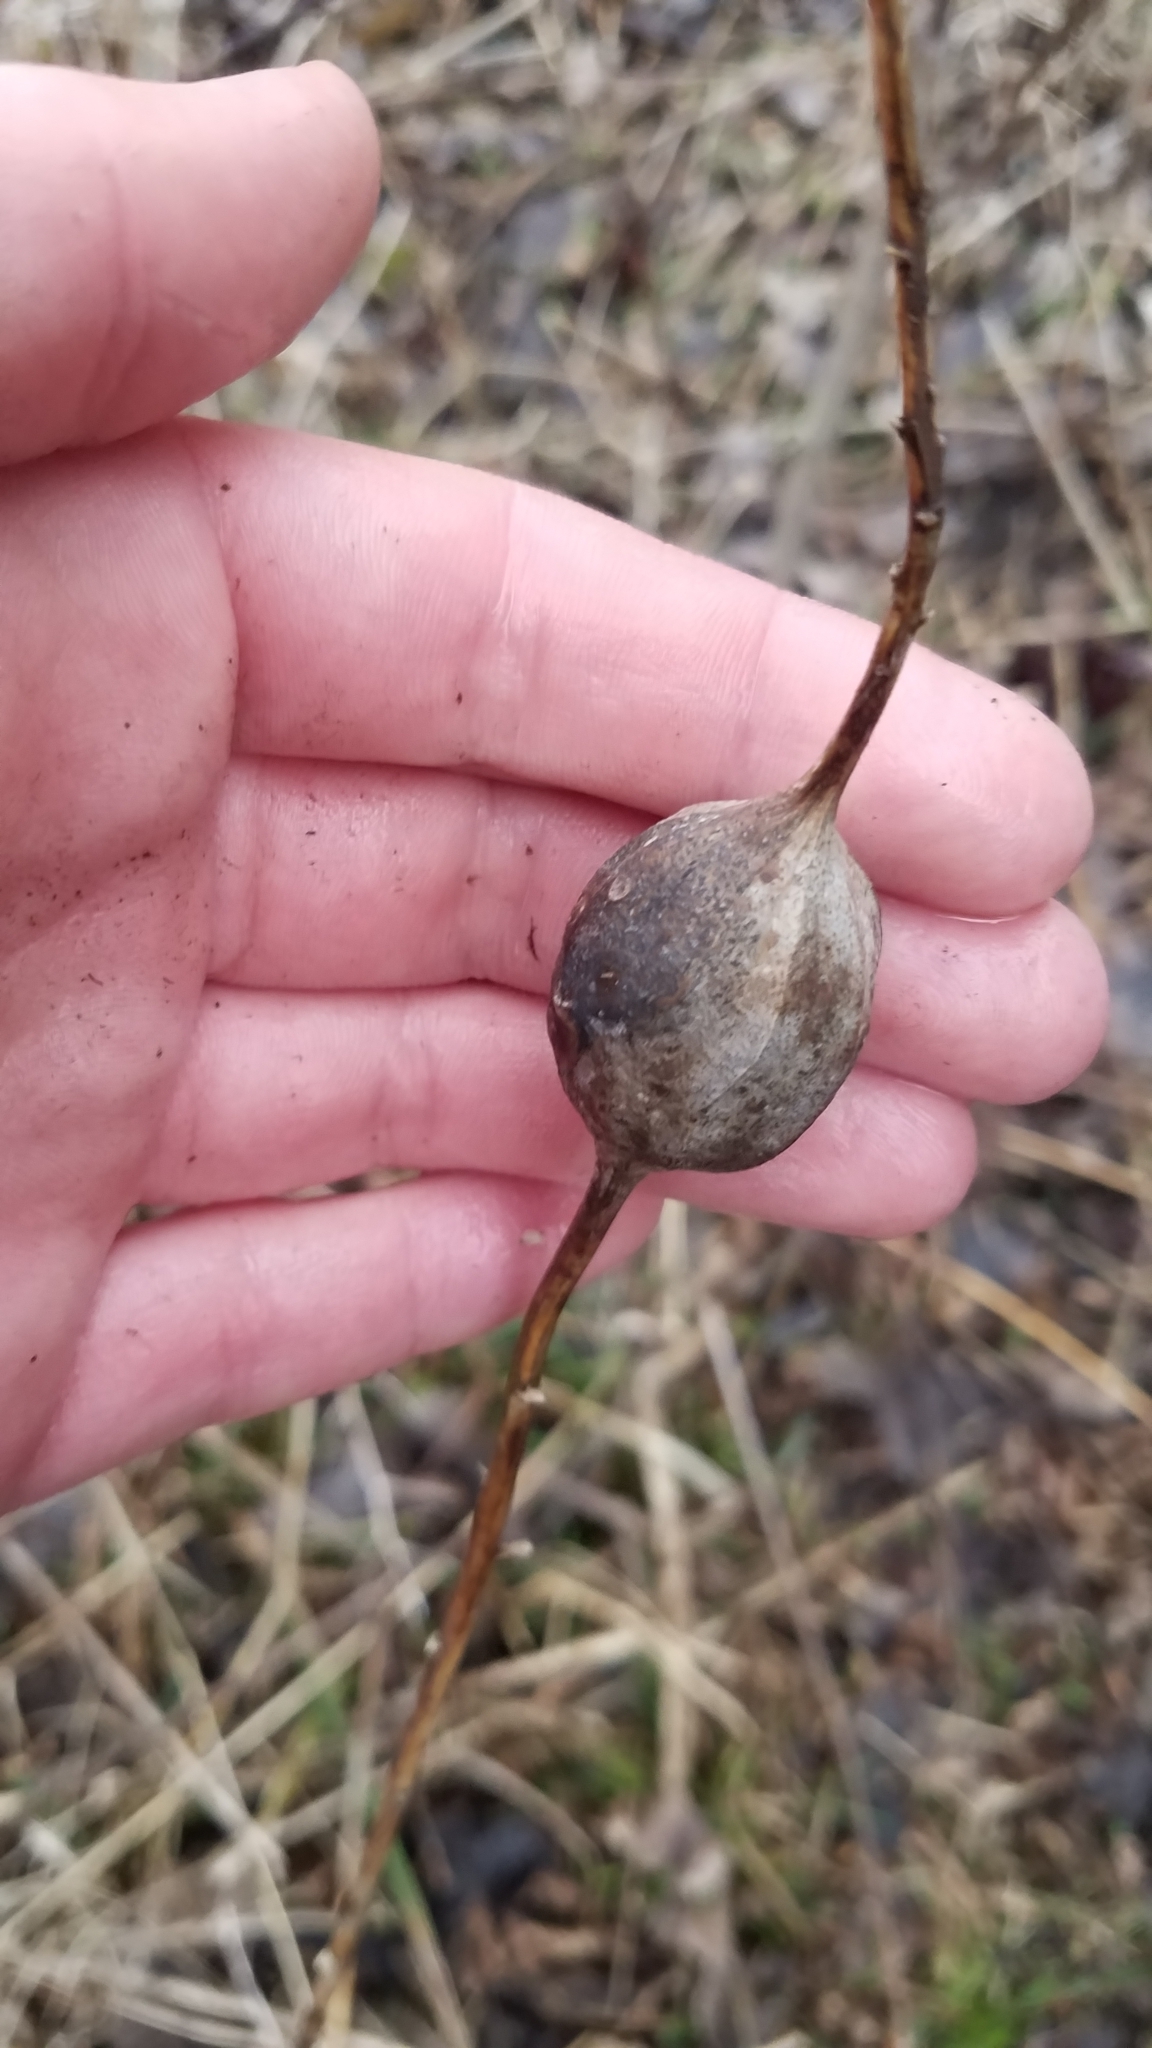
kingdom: Animalia
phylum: Arthropoda
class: Insecta
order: Diptera
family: Tephritidae
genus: Eurosta
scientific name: Eurosta solidaginis
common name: Goldenrod gall fly
